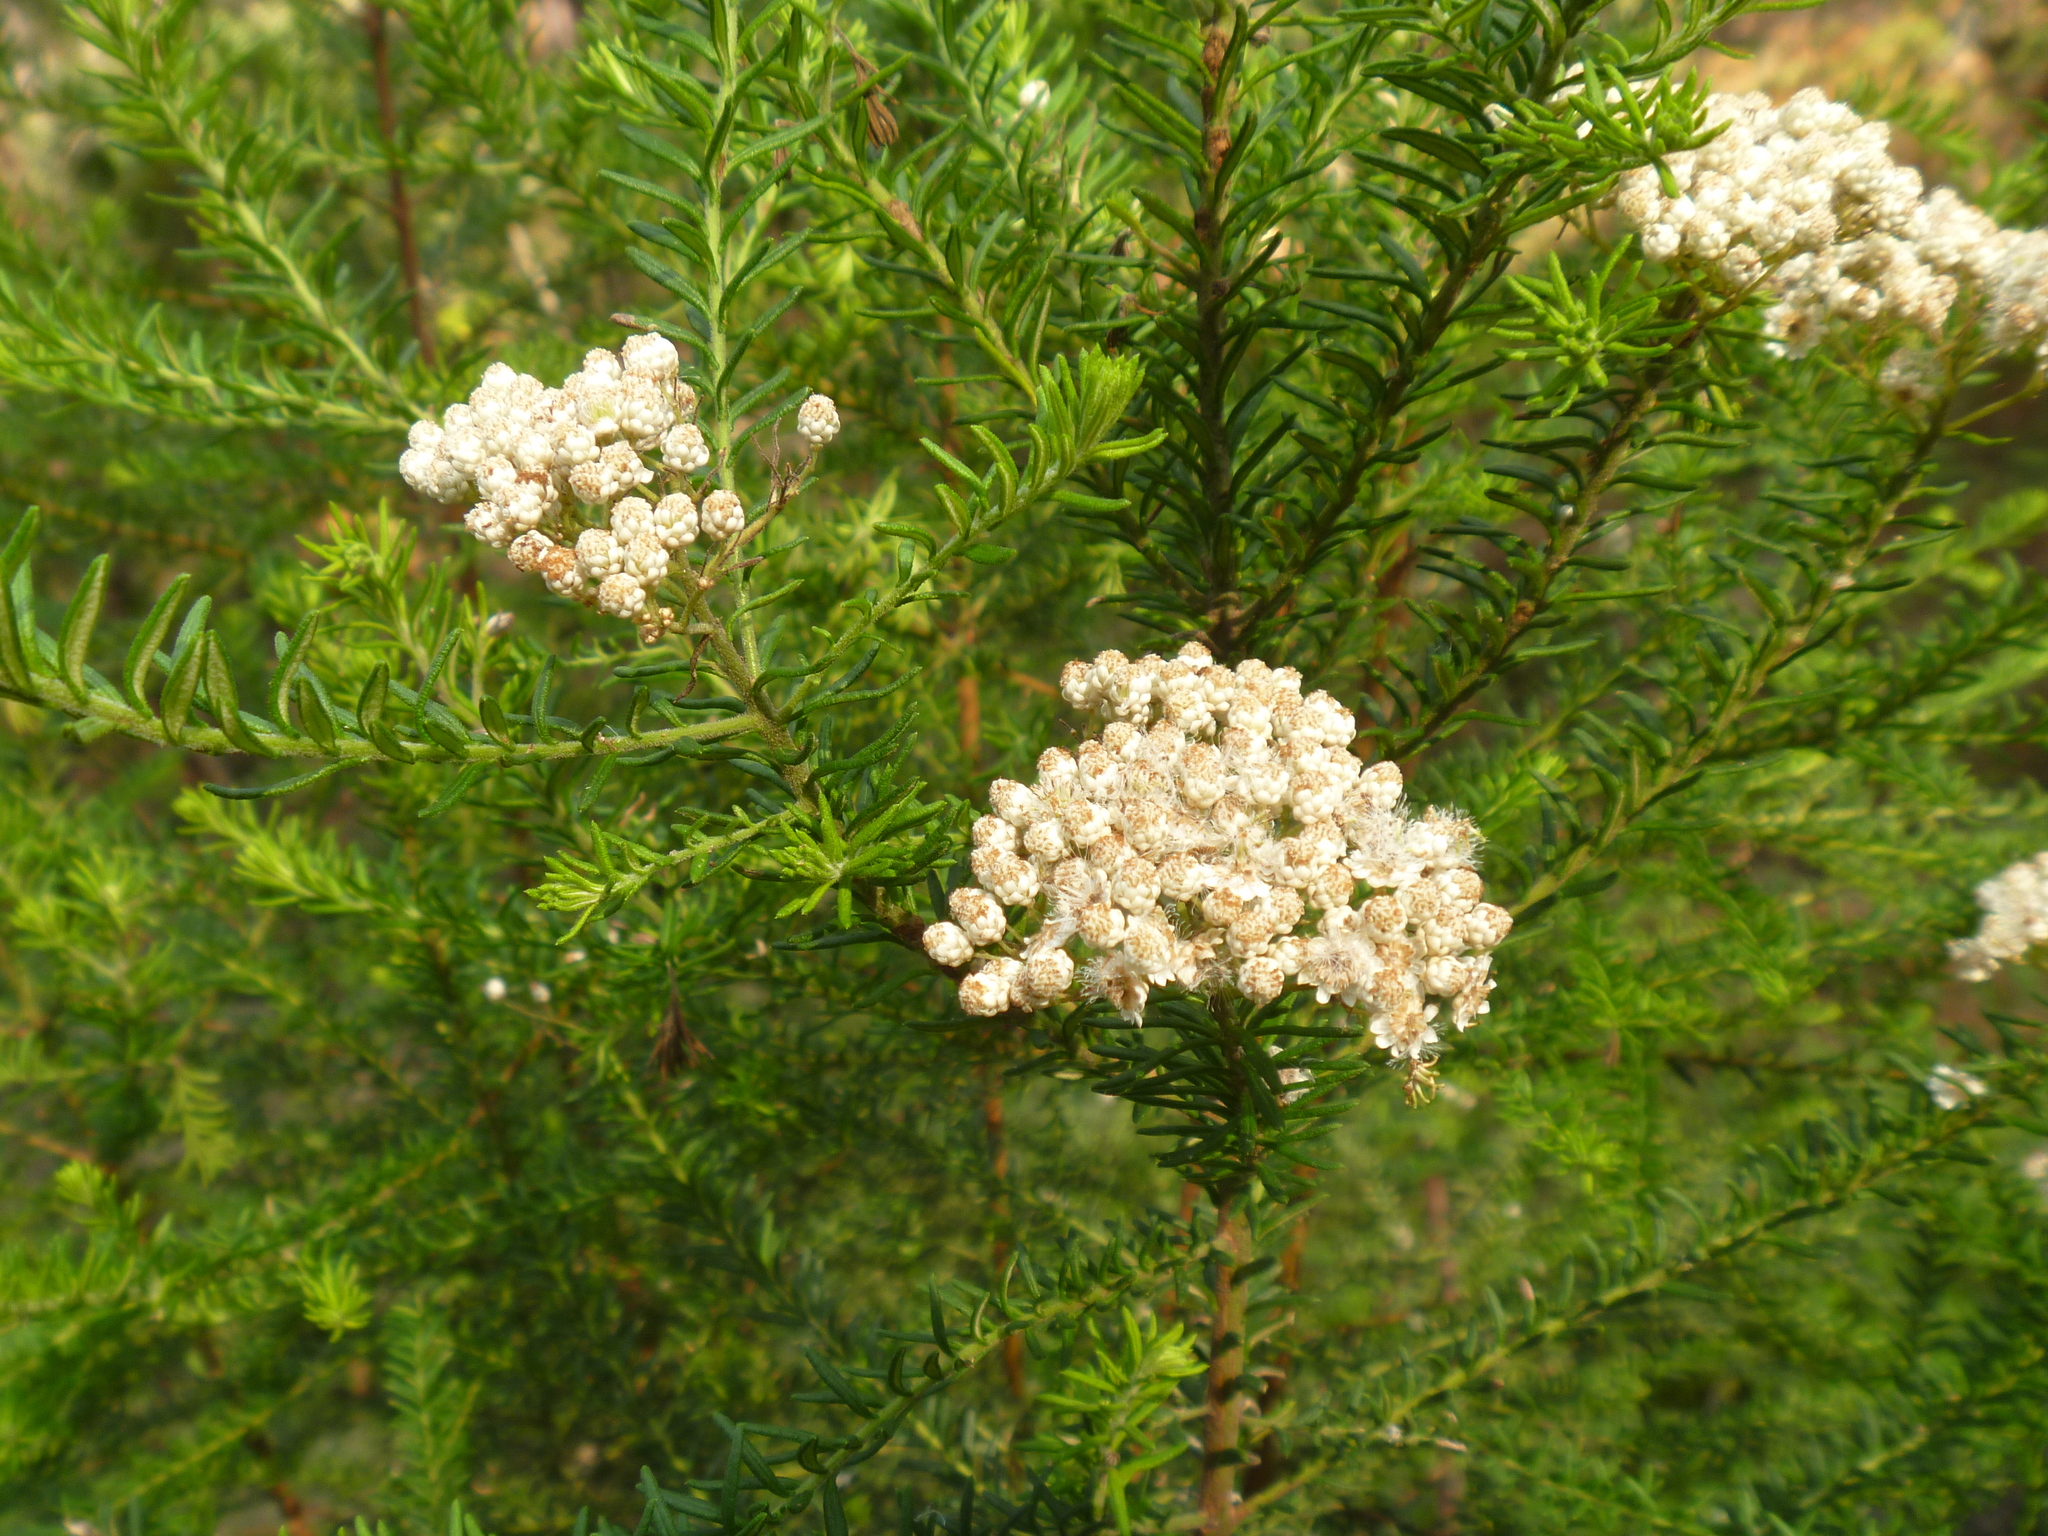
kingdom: Plantae
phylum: Tracheophyta
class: Magnoliopsida
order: Asterales
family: Asteraceae
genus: Ozothamnus
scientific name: Ozothamnus diosmifolius
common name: White-dogwood
